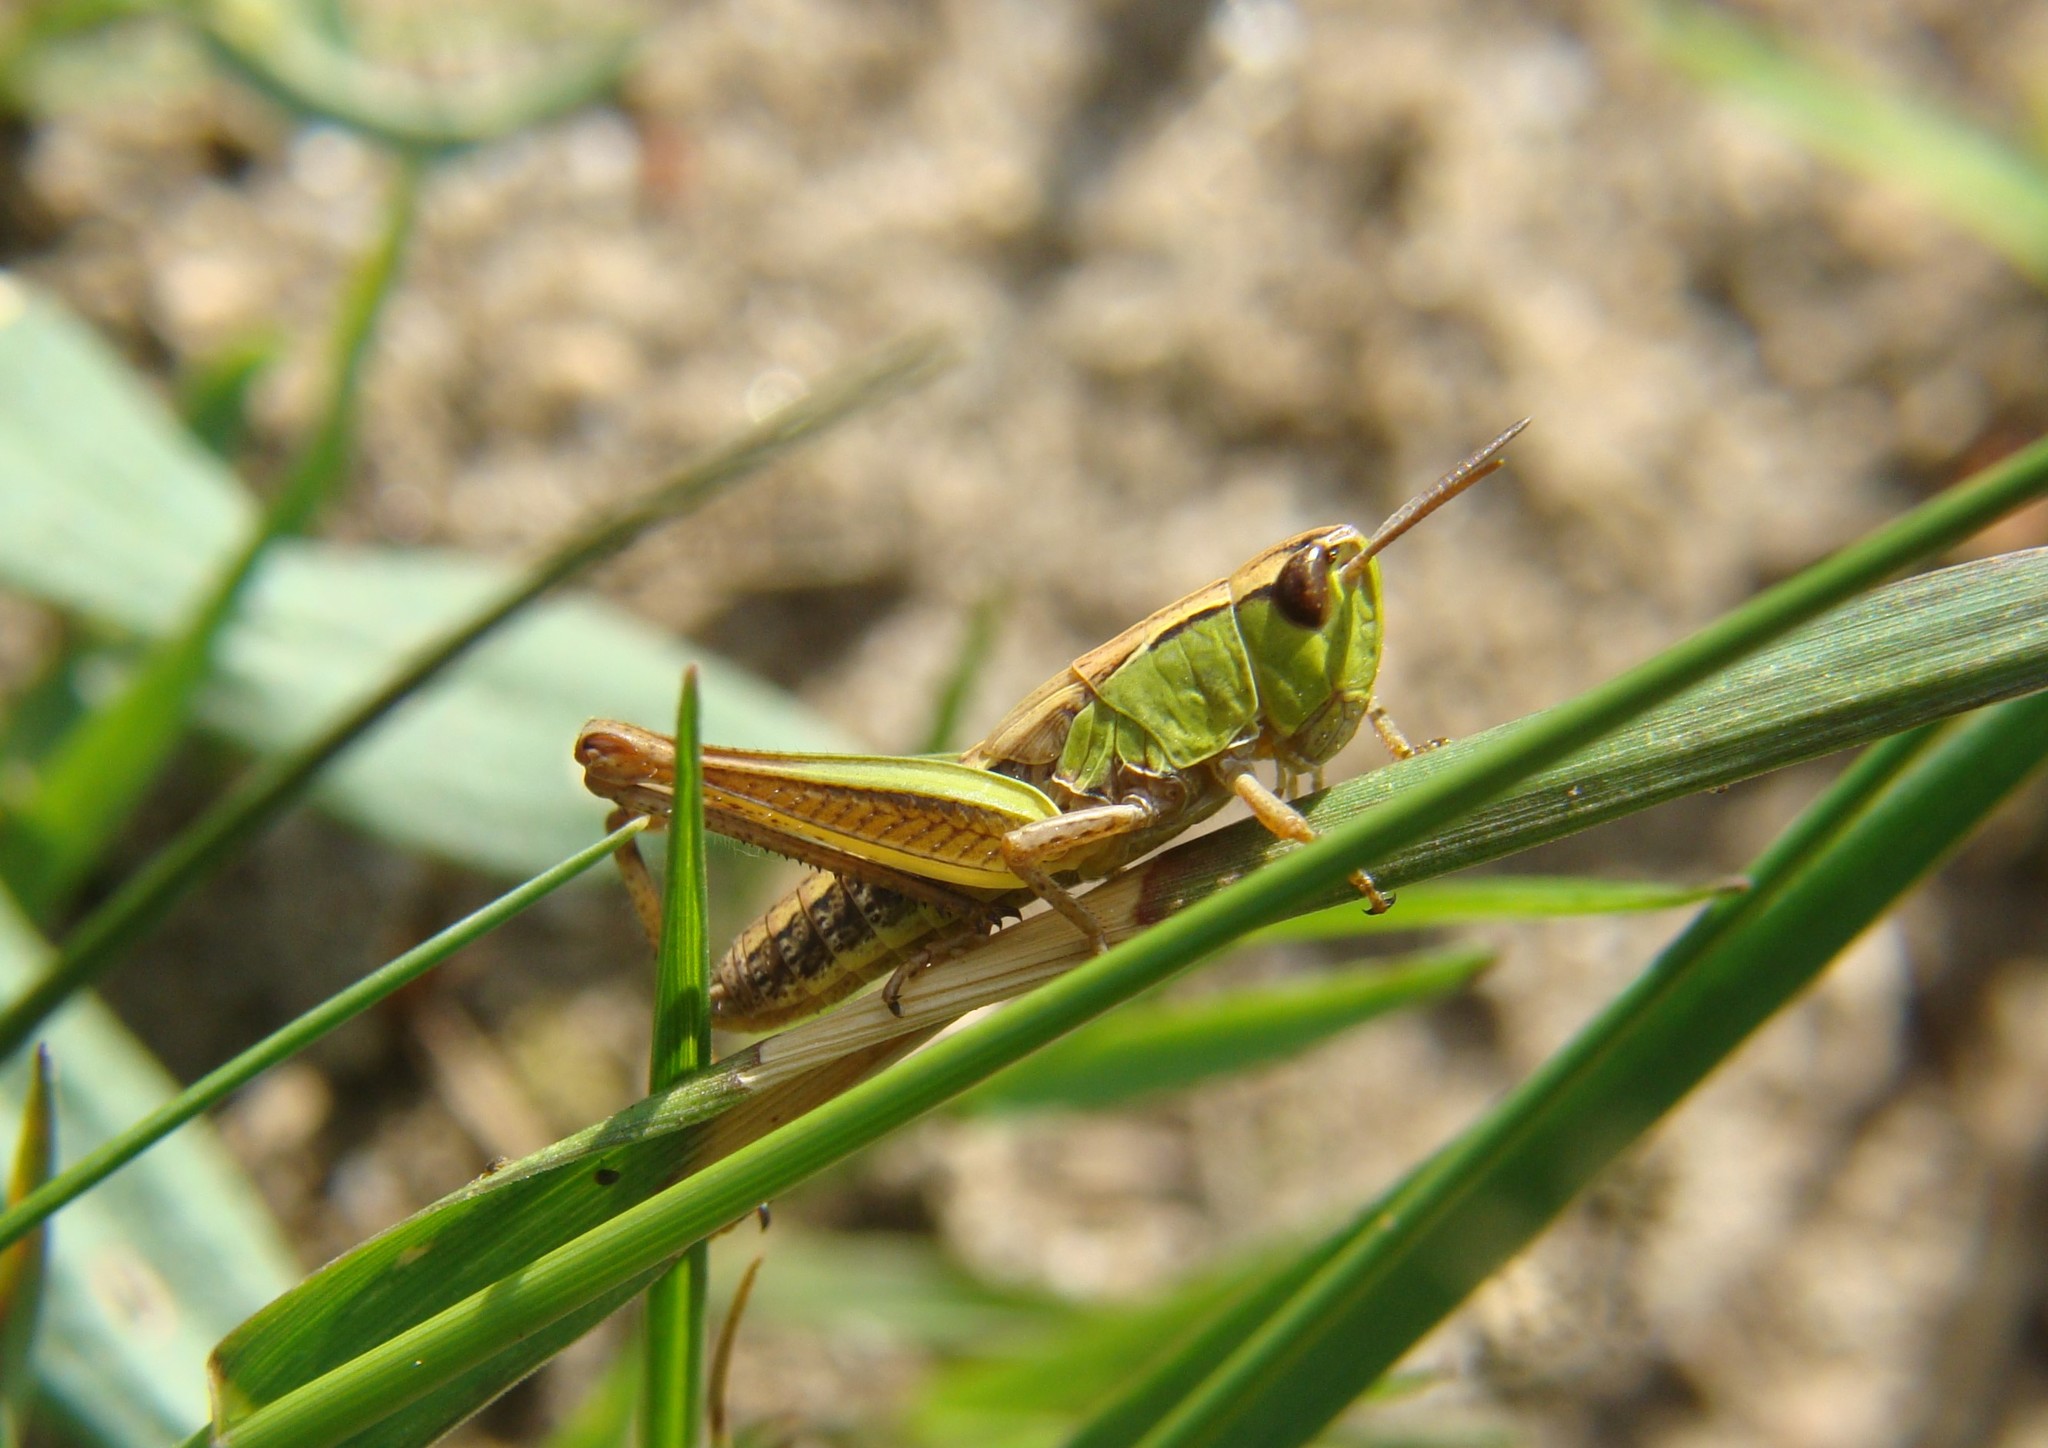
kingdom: Animalia
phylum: Arthropoda
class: Insecta
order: Orthoptera
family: Acrididae
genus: Pseudochorthippus
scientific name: Pseudochorthippus parallelus
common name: Meadow grasshopper
